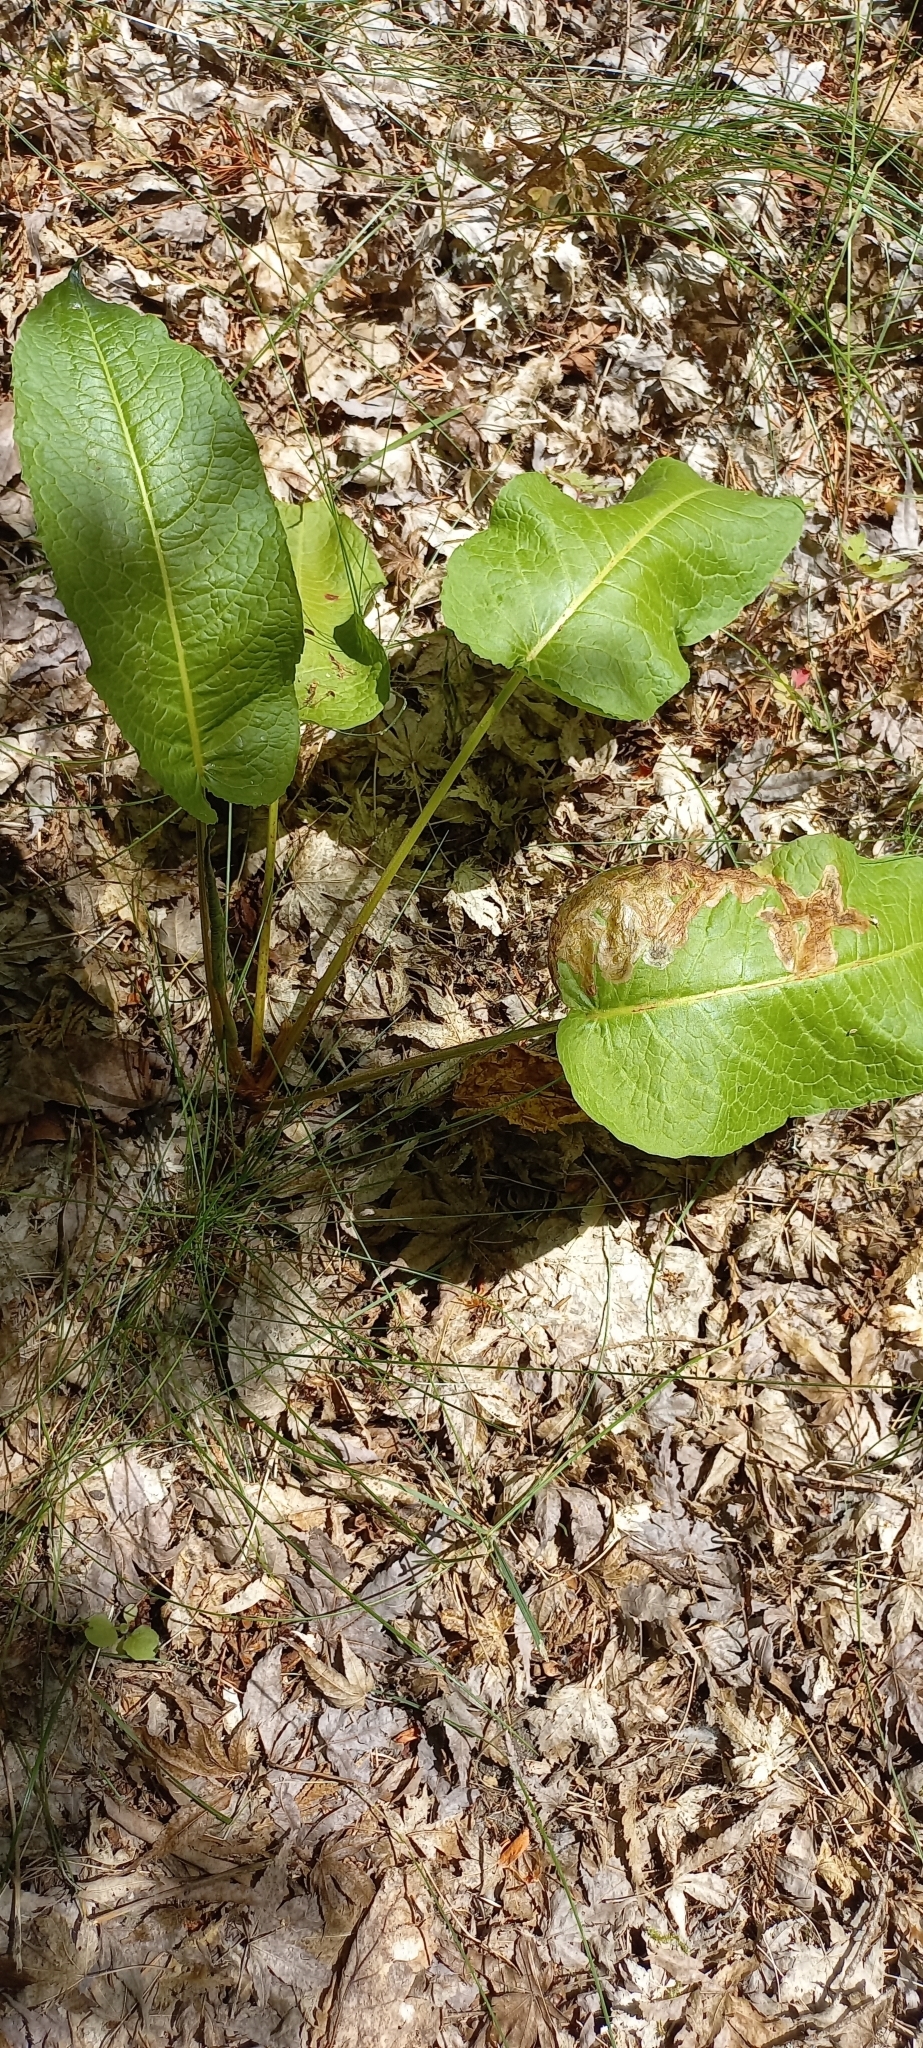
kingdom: Plantae
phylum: Tracheophyta
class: Magnoliopsida
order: Caryophyllales
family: Polygonaceae
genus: Rumex
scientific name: Rumex obtusifolius
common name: Bitter dock
